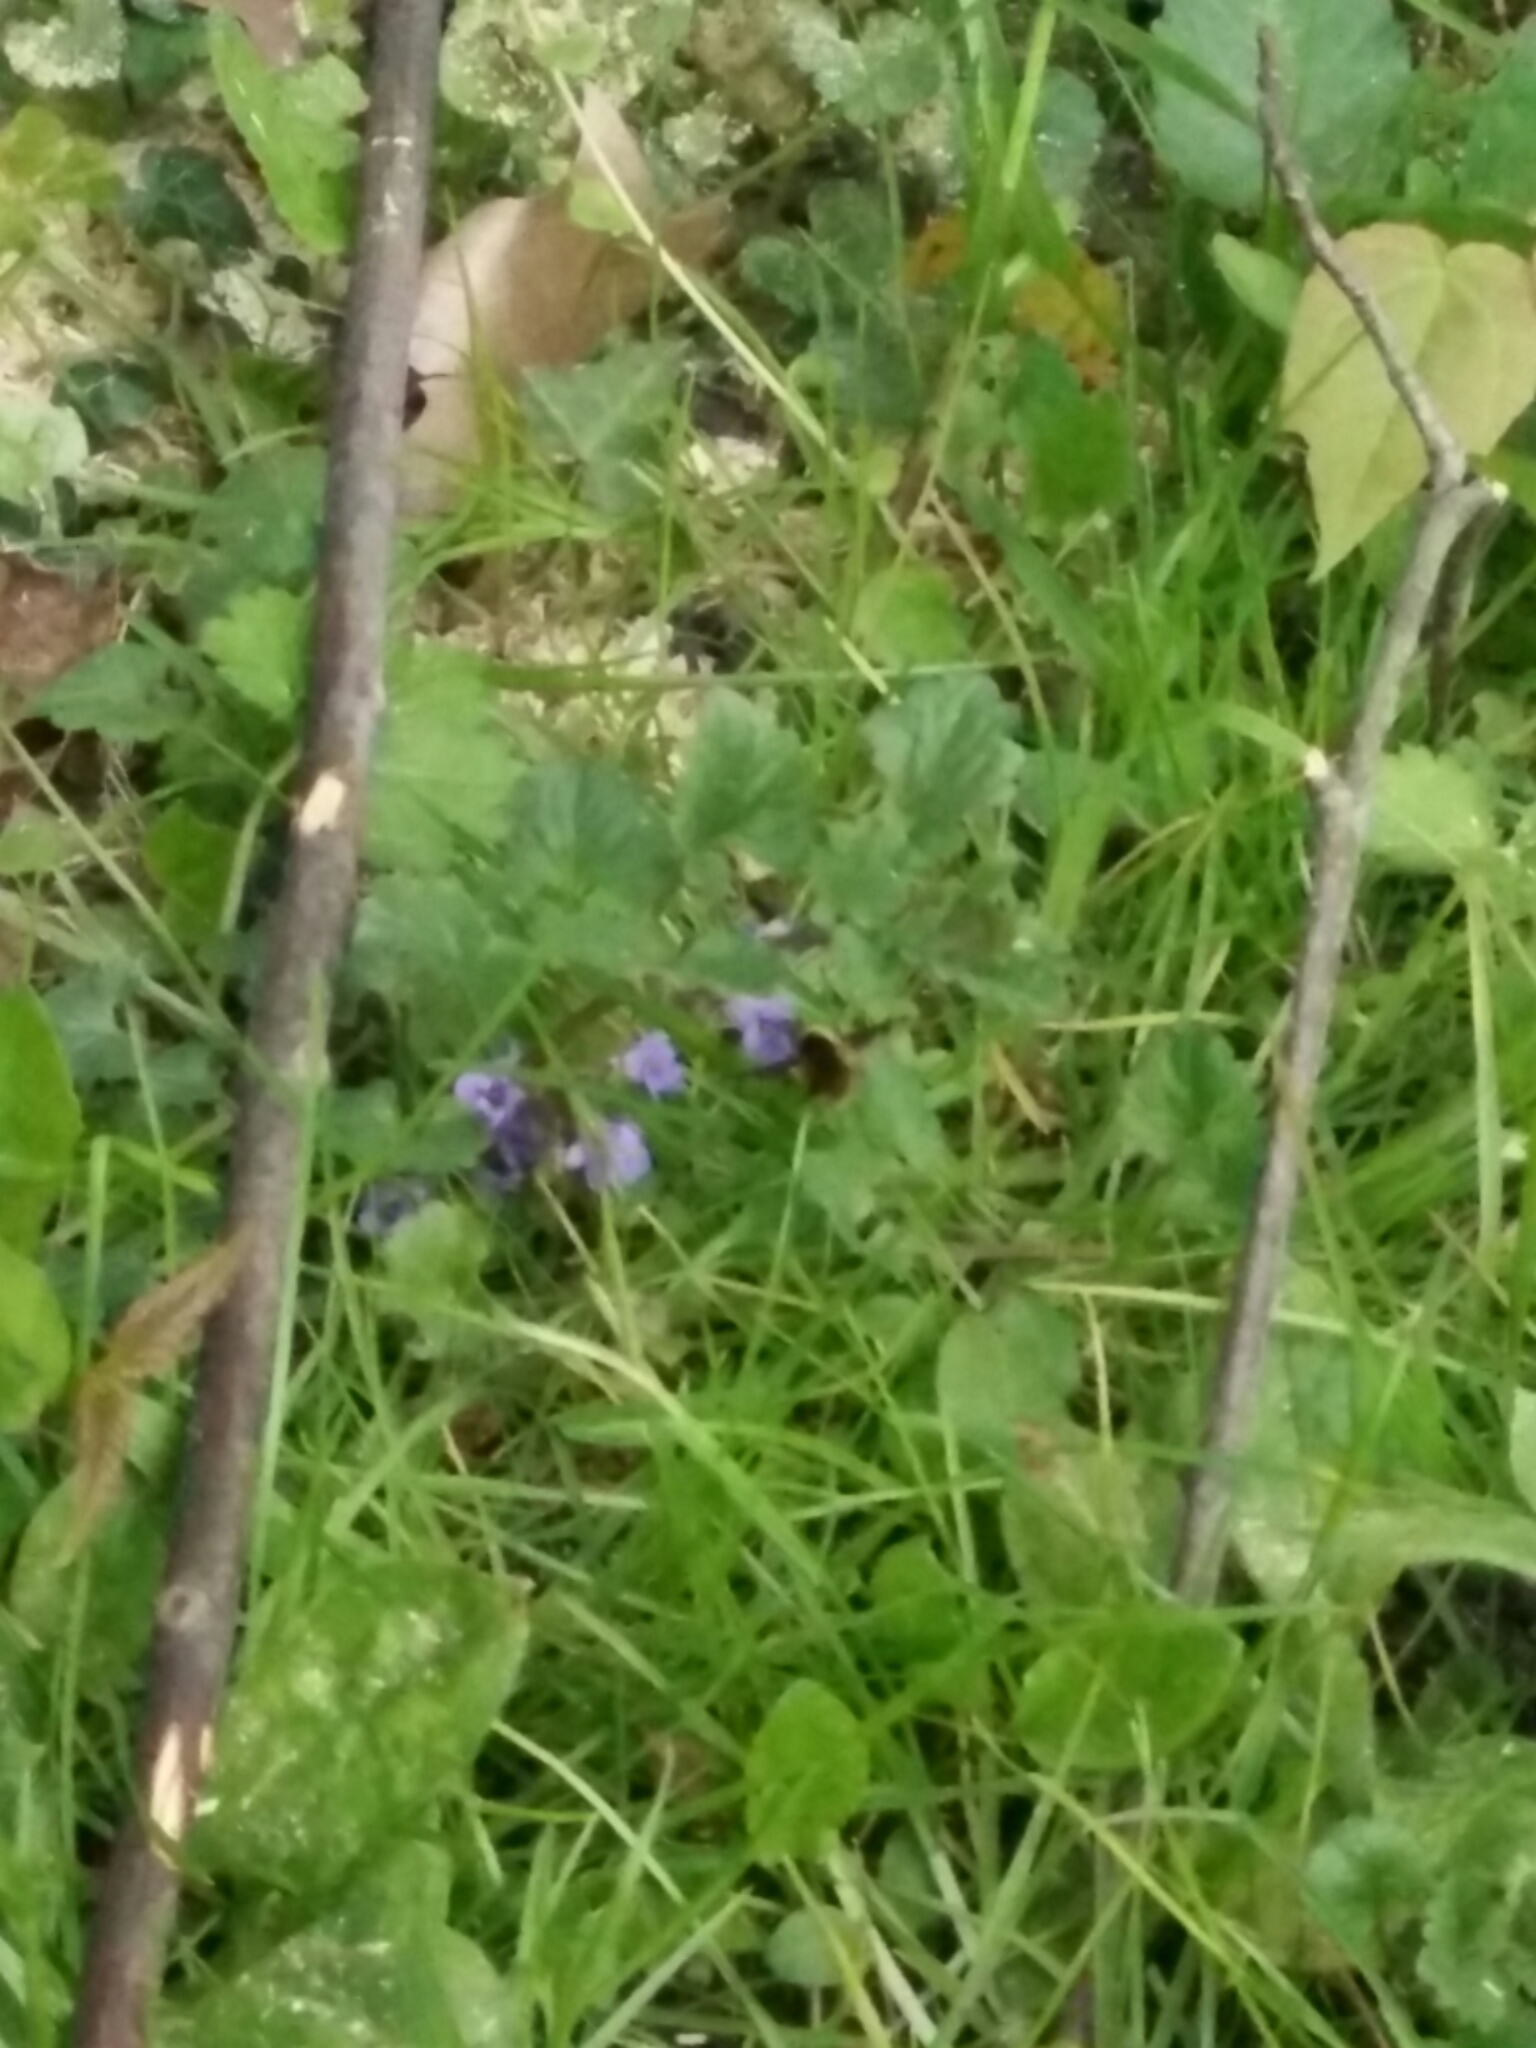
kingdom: Animalia
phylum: Arthropoda
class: Insecta
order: Diptera
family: Bombyliidae
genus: Bombylius
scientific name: Bombylius major
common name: Bee fly
